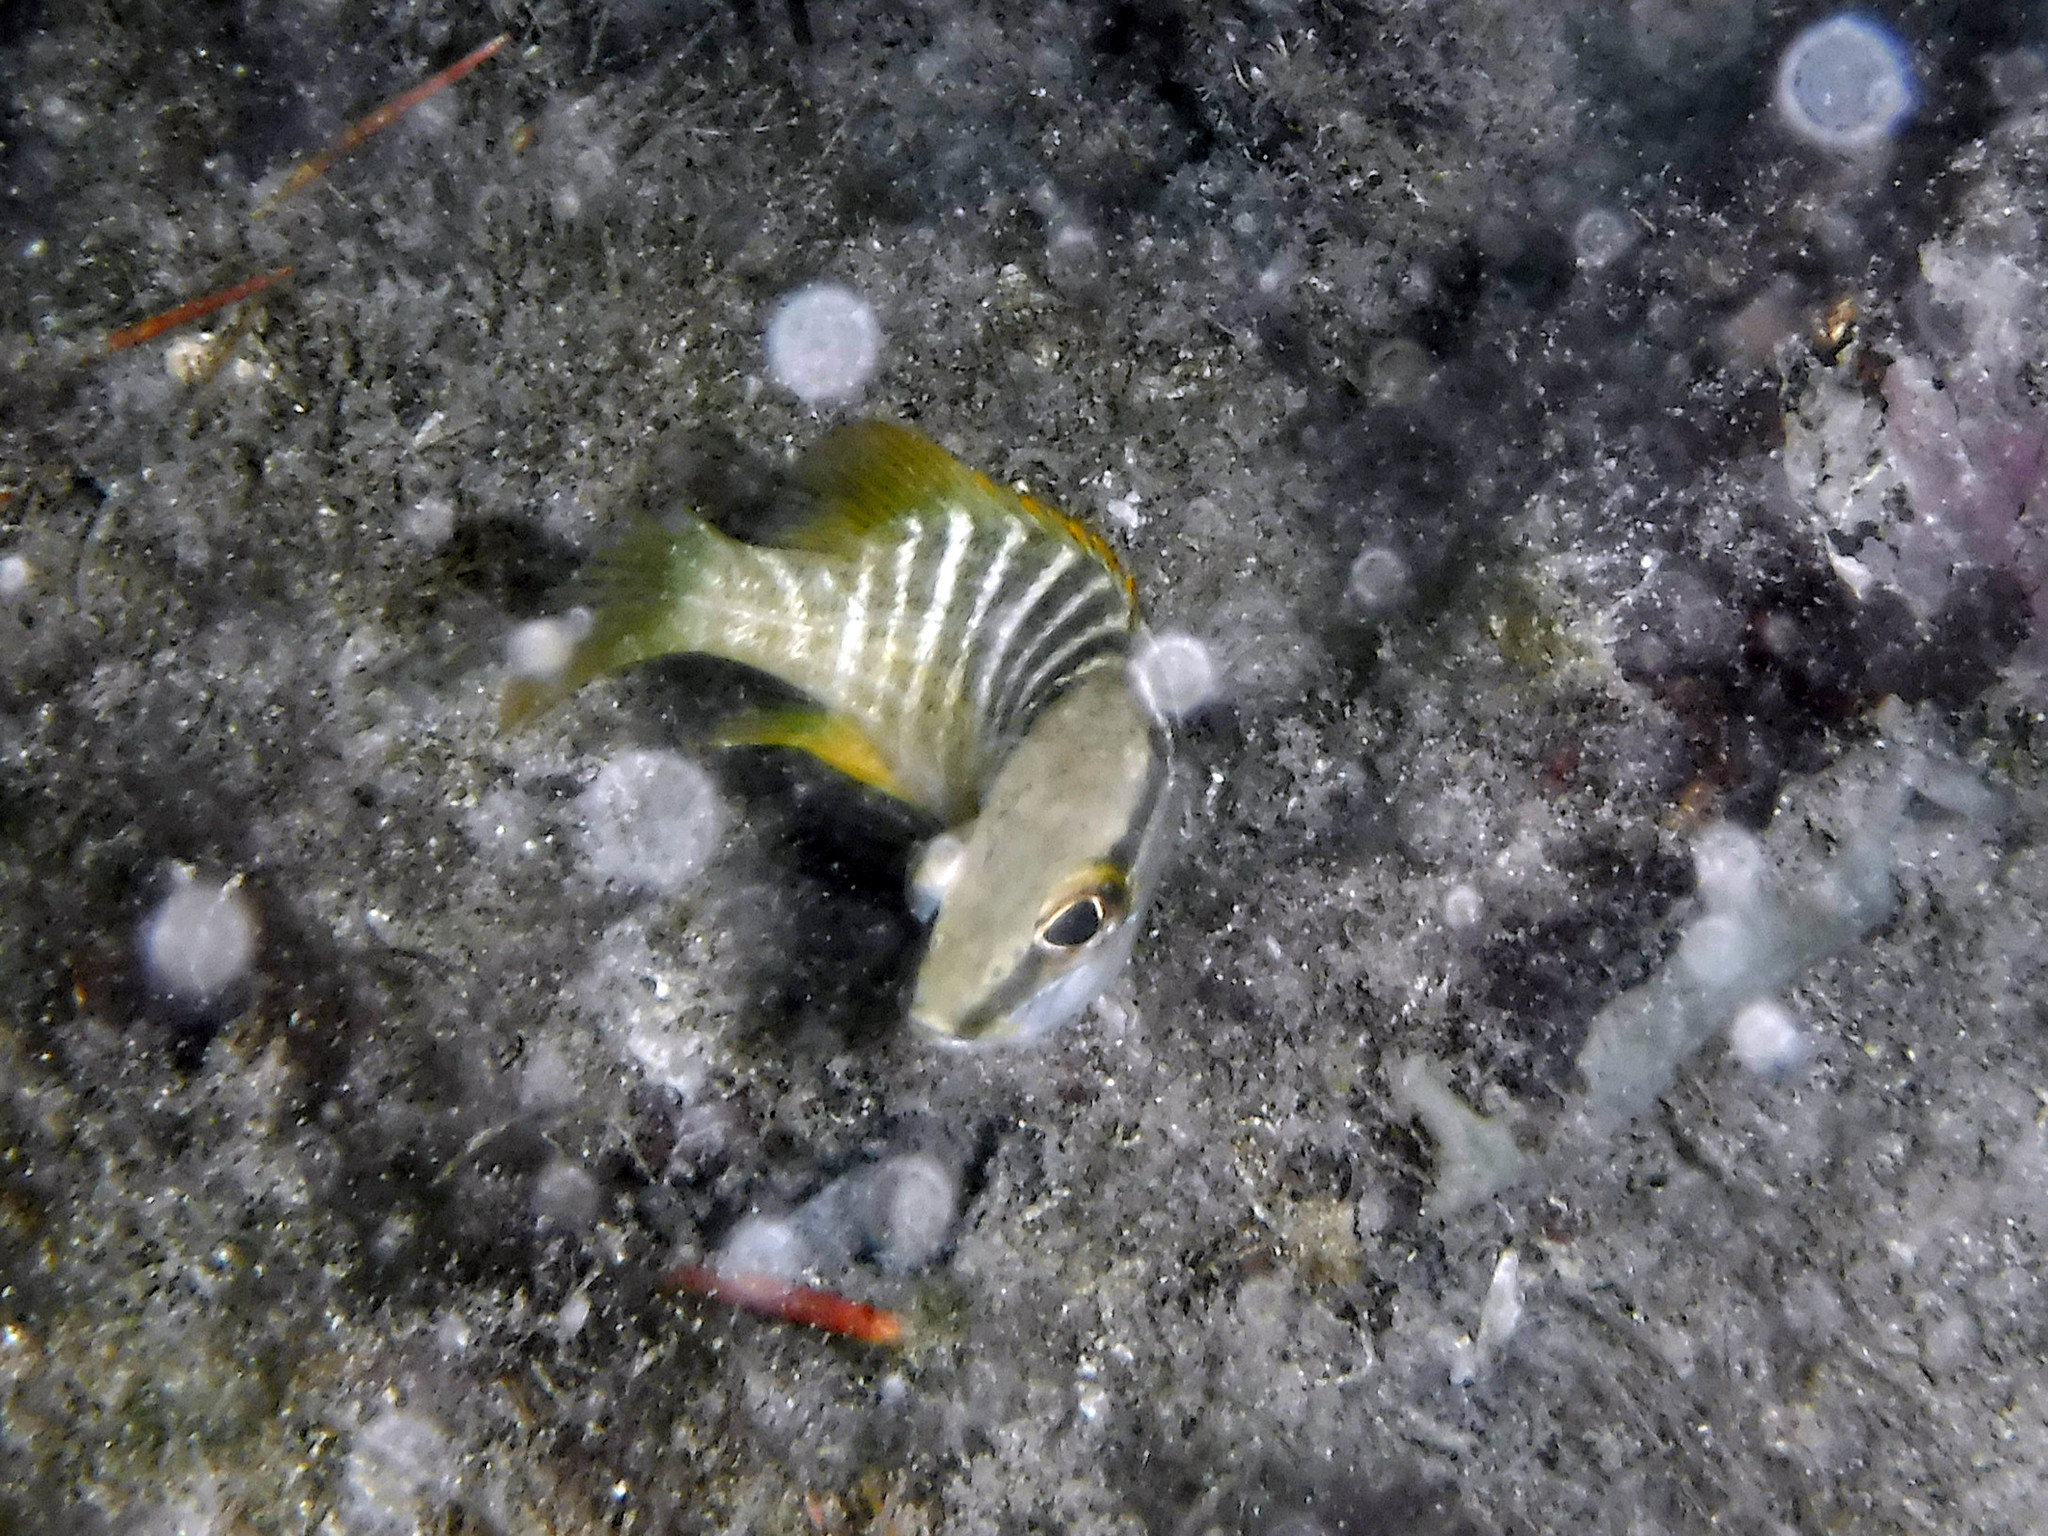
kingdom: Animalia
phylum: Chordata
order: Perciformes
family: Lutjanidae
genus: Lutjanus
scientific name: Lutjanus apodus
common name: Schoolmaster
